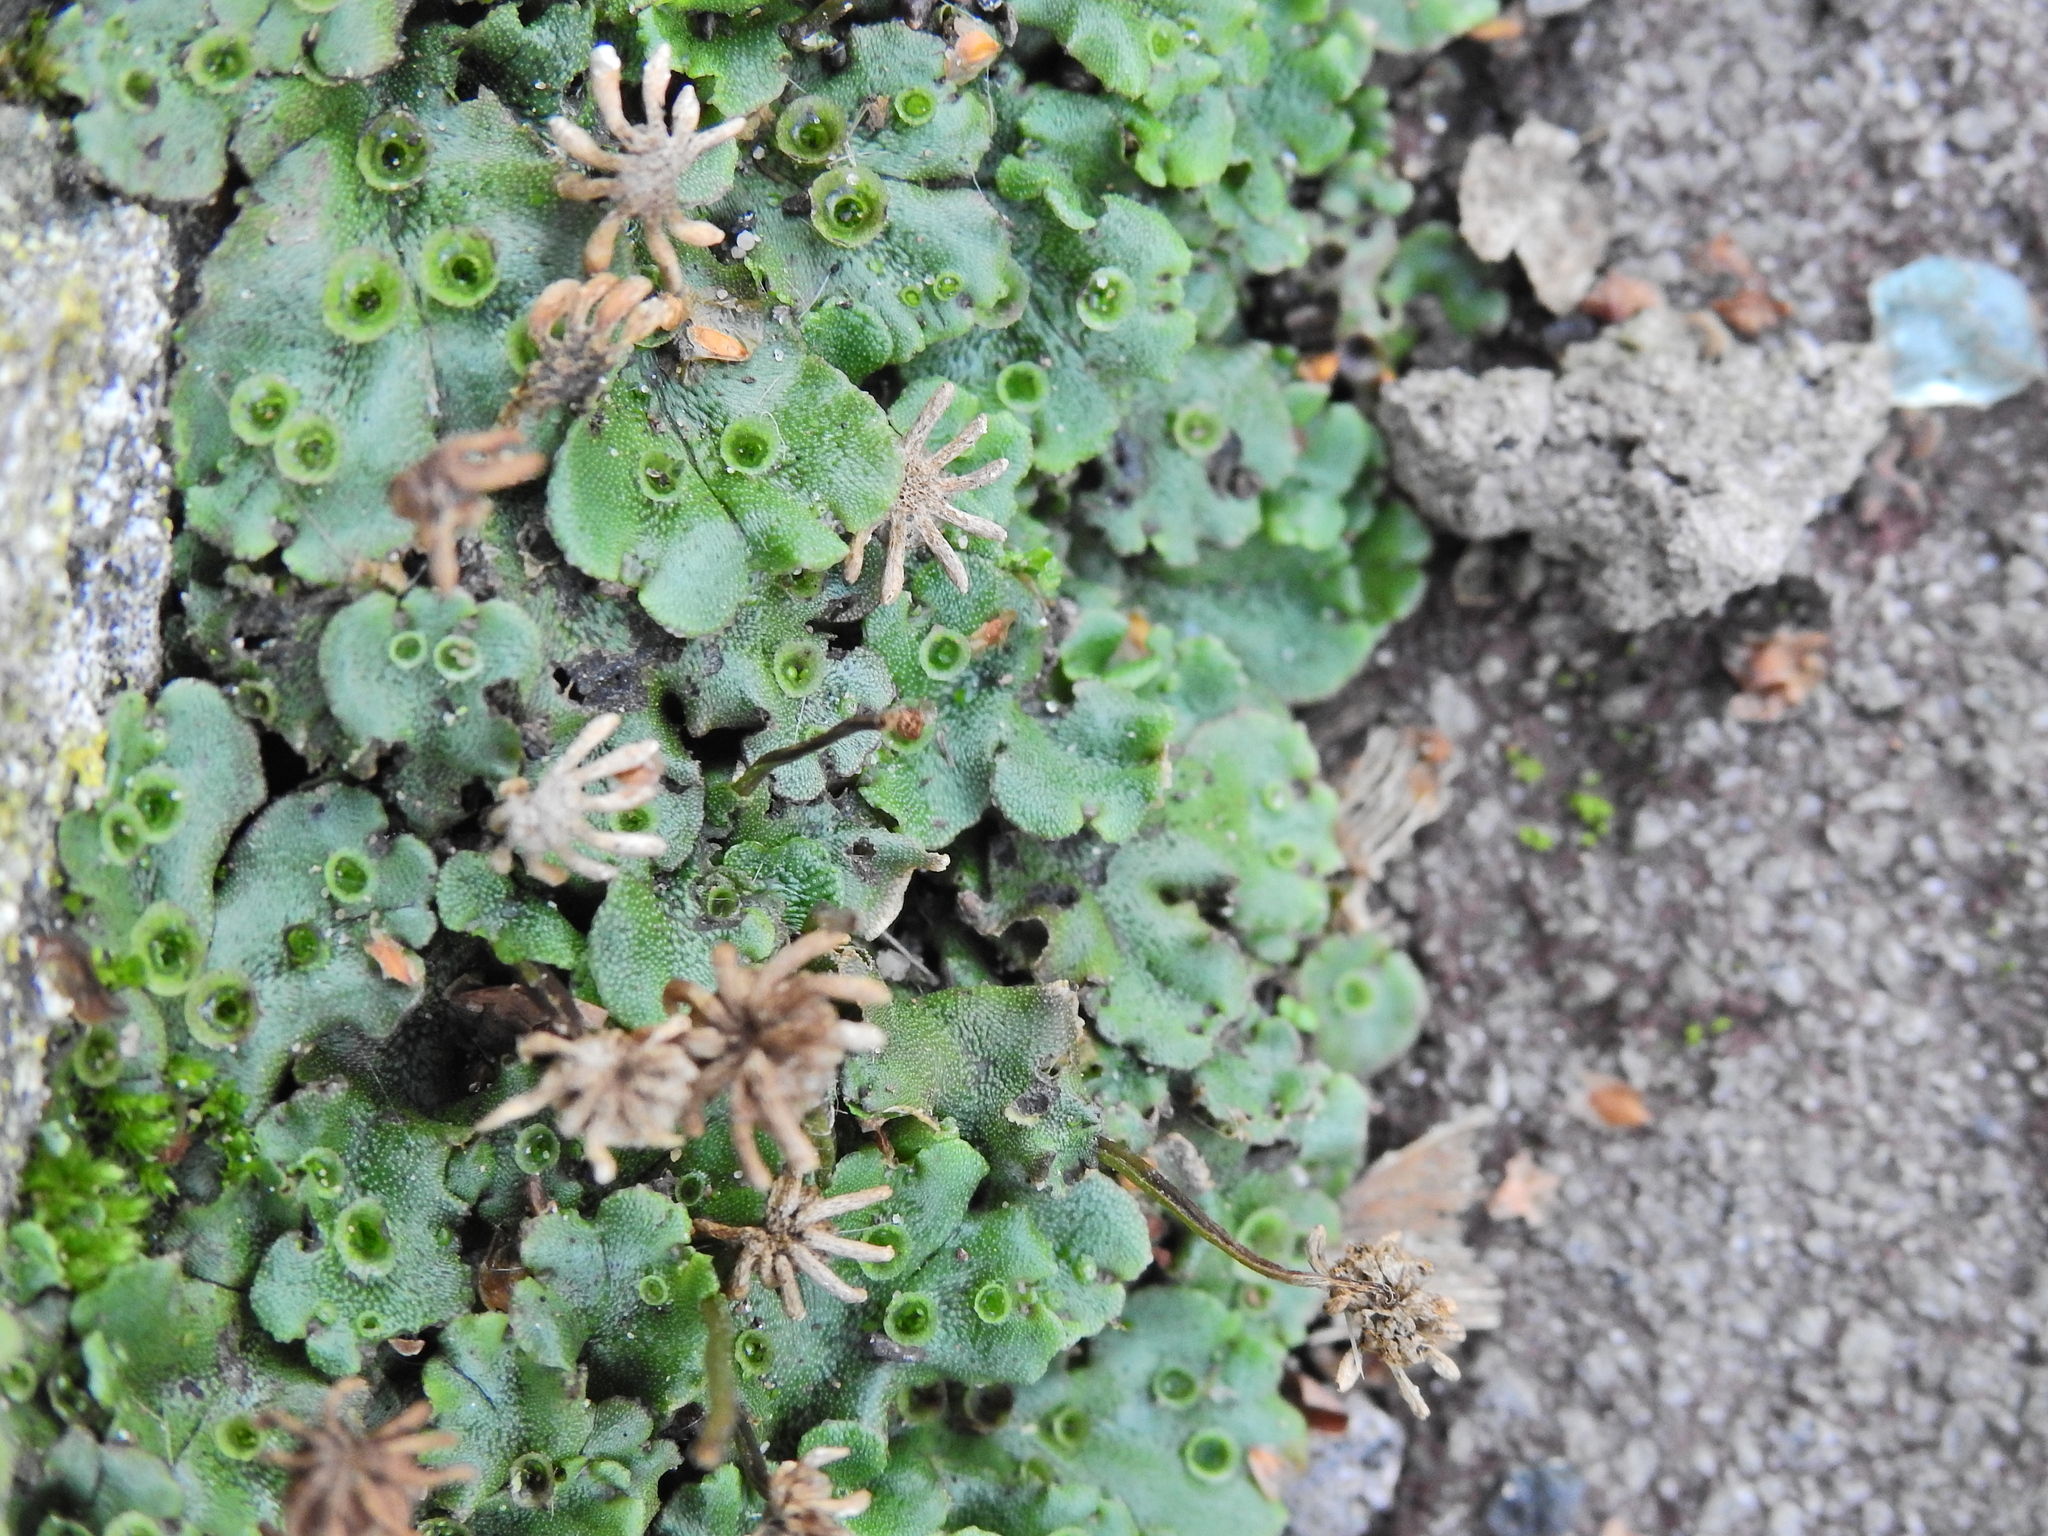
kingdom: Plantae
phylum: Marchantiophyta
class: Marchantiopsida
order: Marchantiales
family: Marchantiaceae
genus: Marchantia
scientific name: Marchantia polymorpha
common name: Common liverwort
